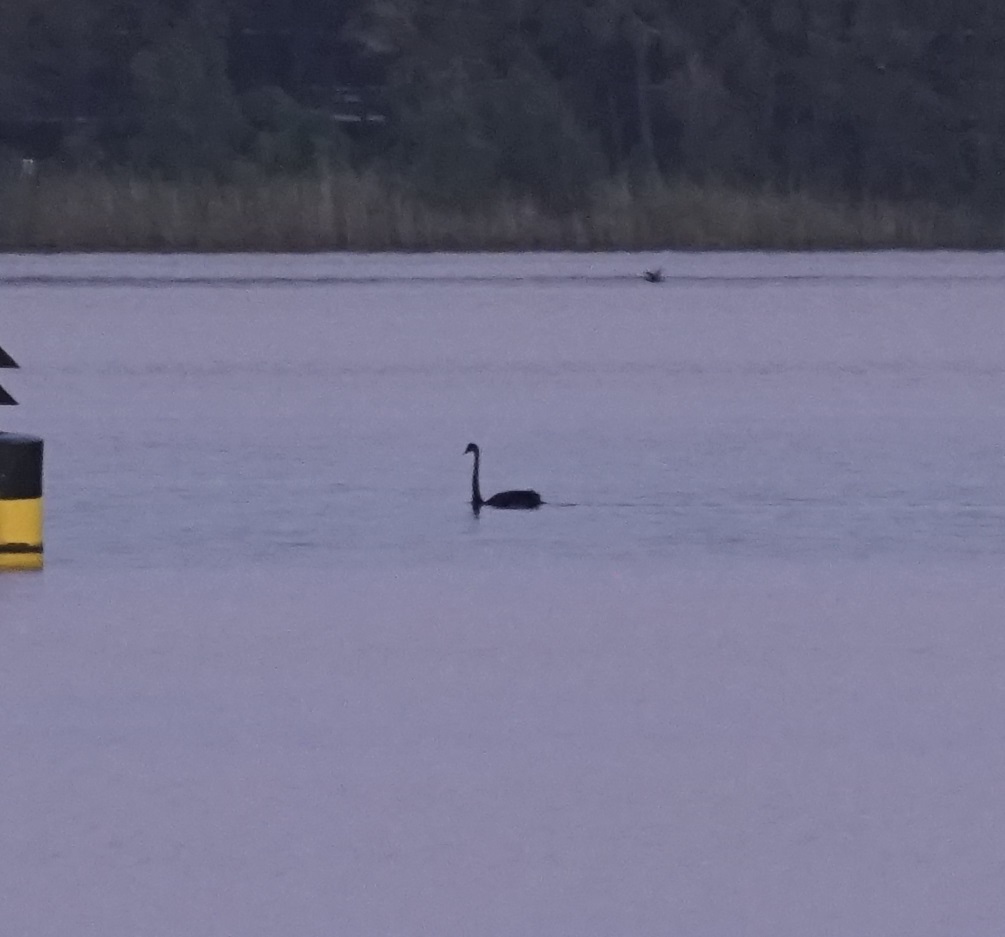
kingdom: Animalia
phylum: Chordata
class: Aves
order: Anseriformes
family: Anatidae
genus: Cygnus
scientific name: Cygnus atratus
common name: Black swan
